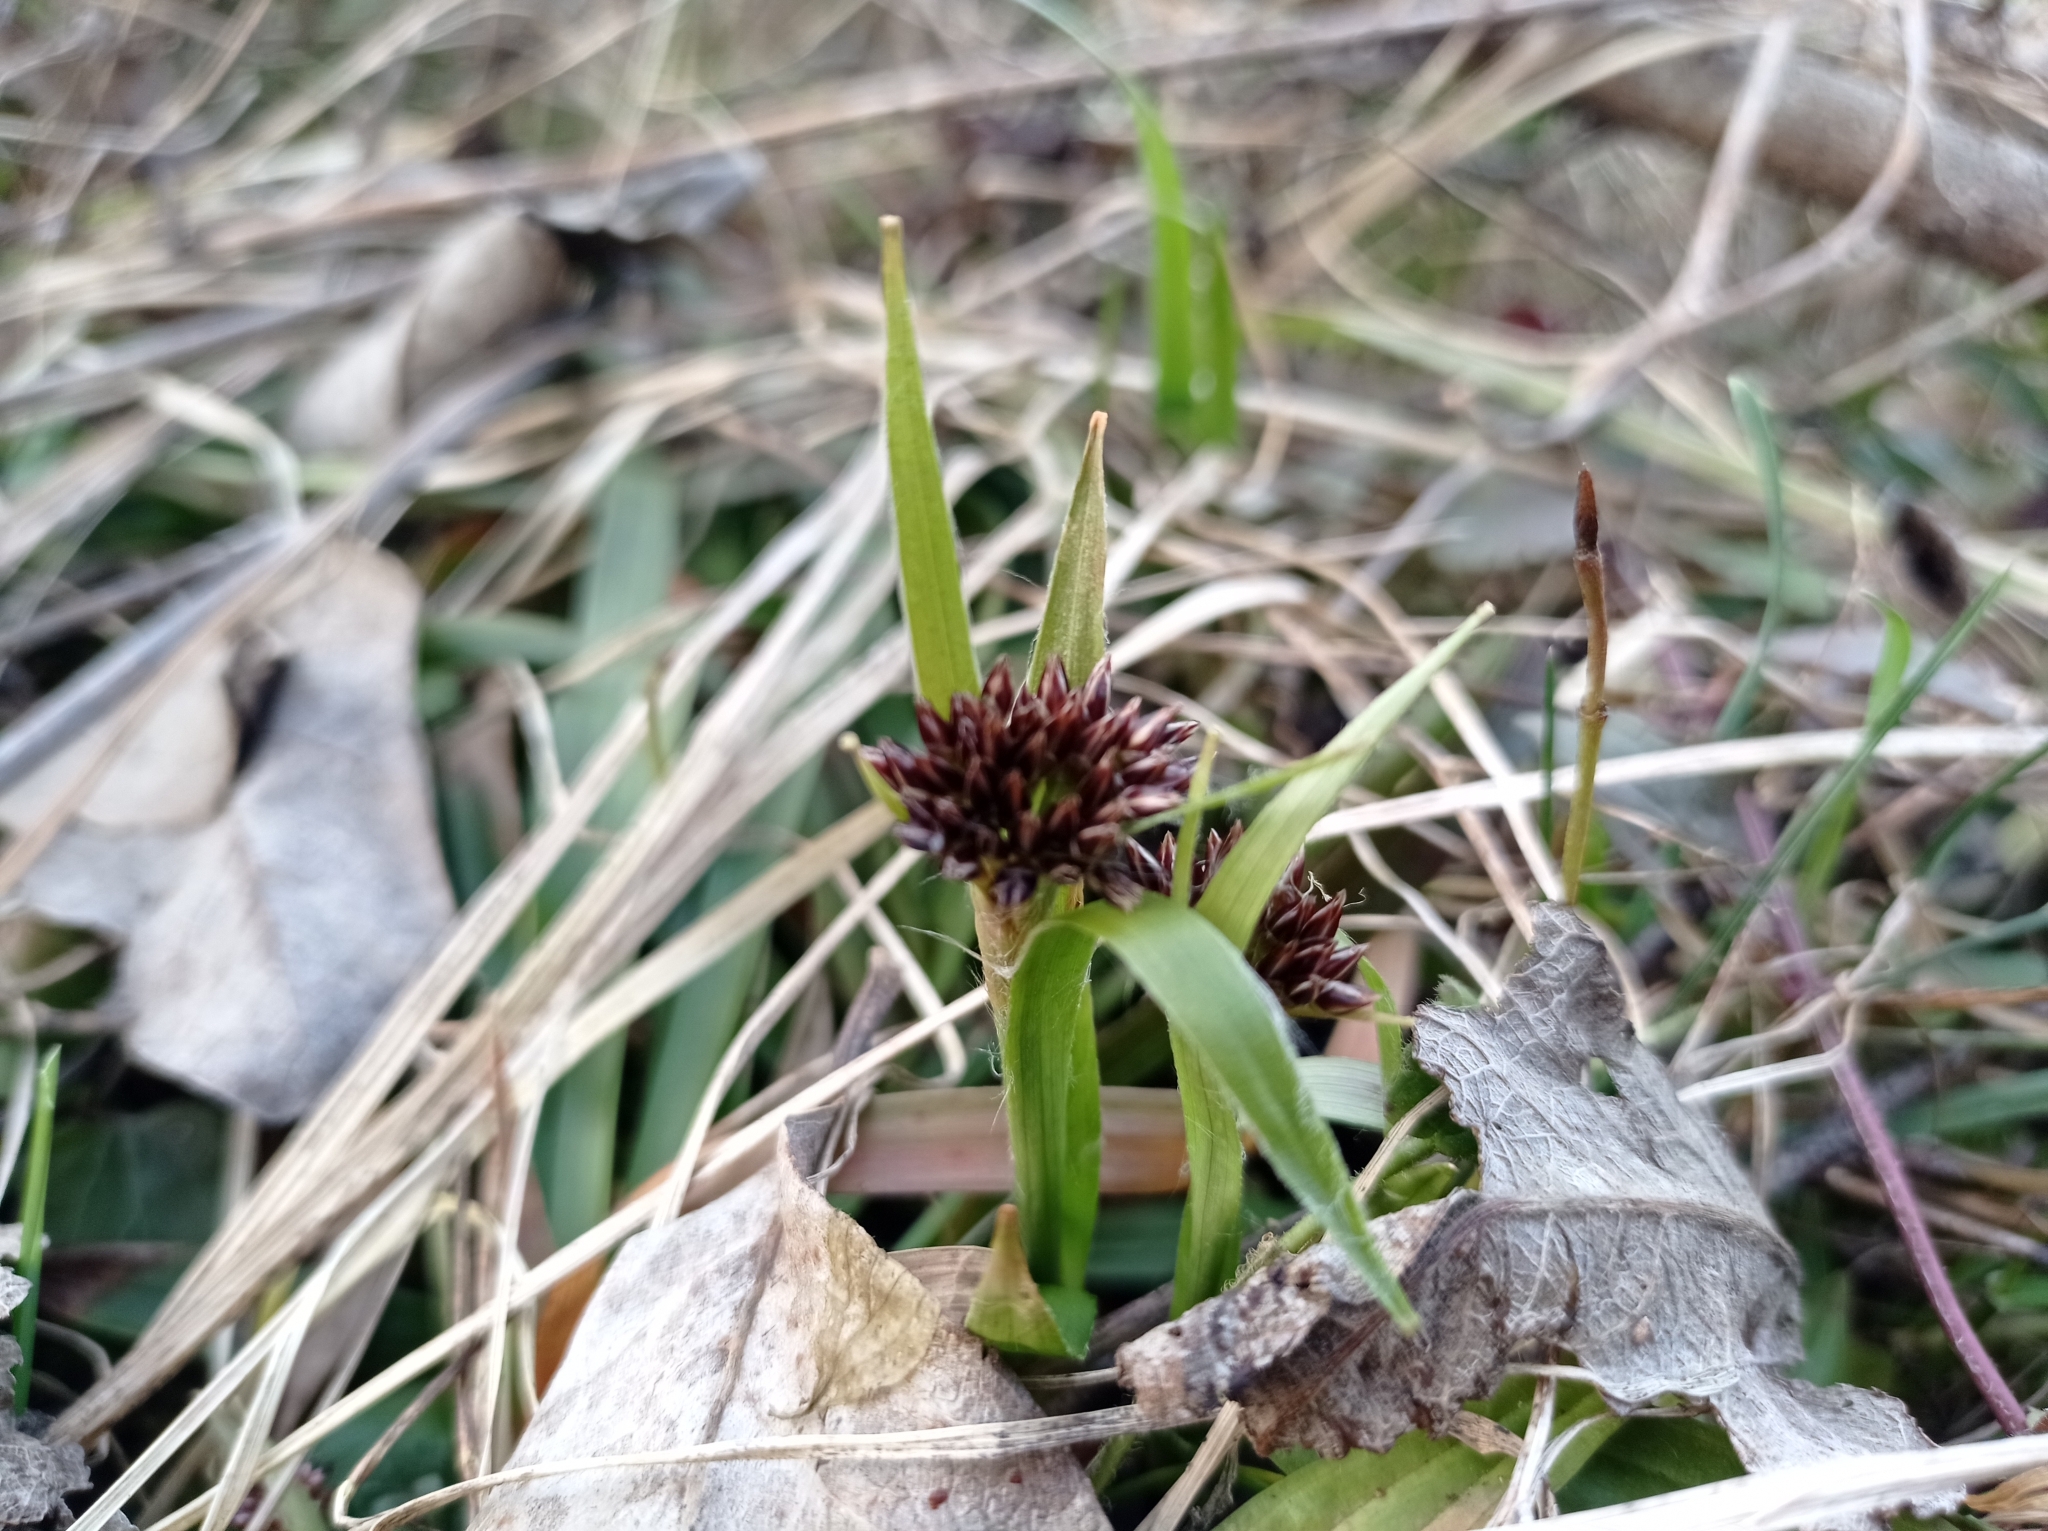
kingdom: Plantae
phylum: Tracheophyta
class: Liliopsida
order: Poales
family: Juncaceae
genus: Luzula
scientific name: Luzula pilosa
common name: Hairy wood-rush
